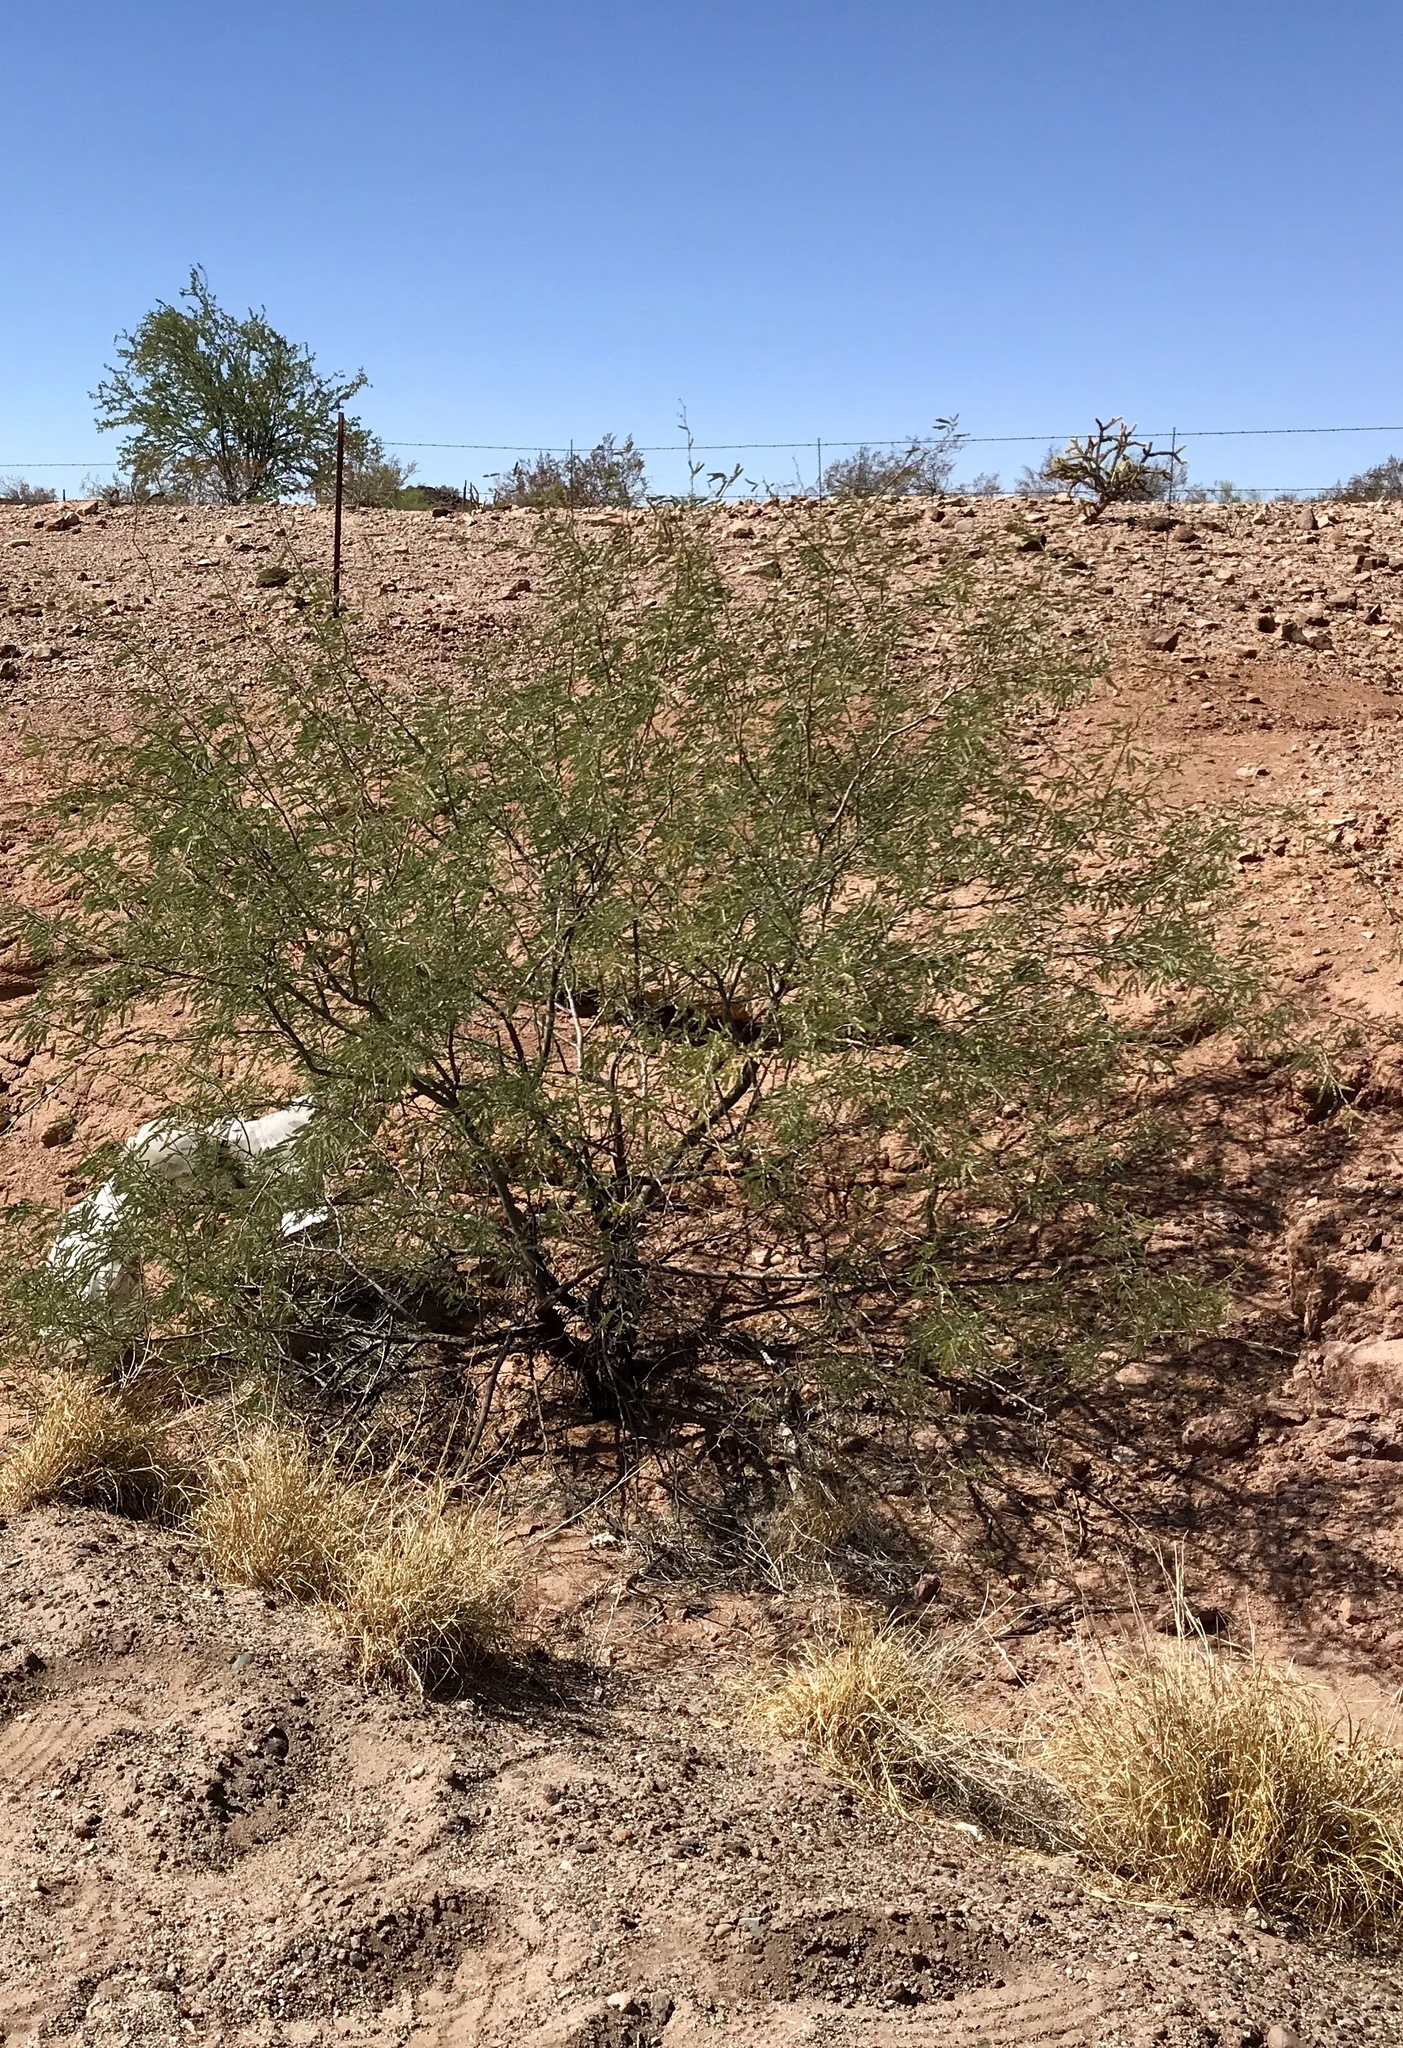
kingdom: Plantae
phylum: Tracheophyta
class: Magnoliopsida
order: Zygophyllales
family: Zygophyllaceae
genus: Larrea
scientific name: Larrea tridentata
